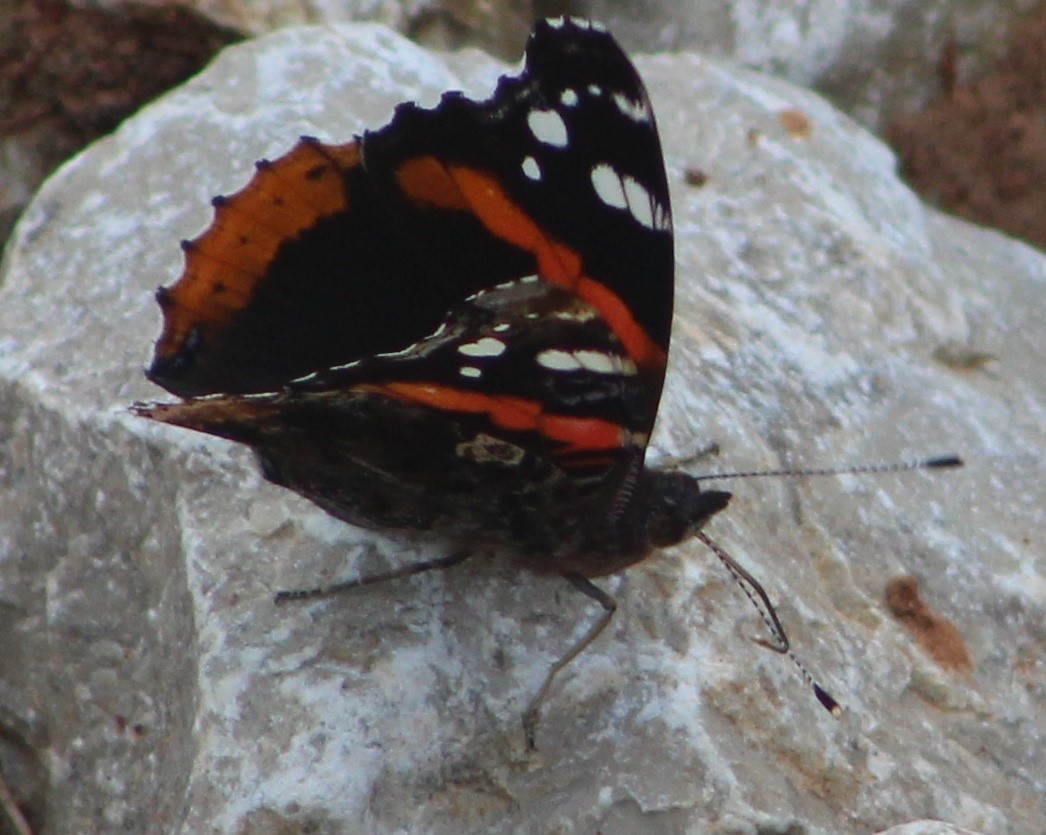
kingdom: Animalia
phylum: Arthropoda
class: Insecta
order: Lepidoptera
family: Nymphalidae
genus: Vanessa
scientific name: Vanessa atalanta
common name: Red admiral
